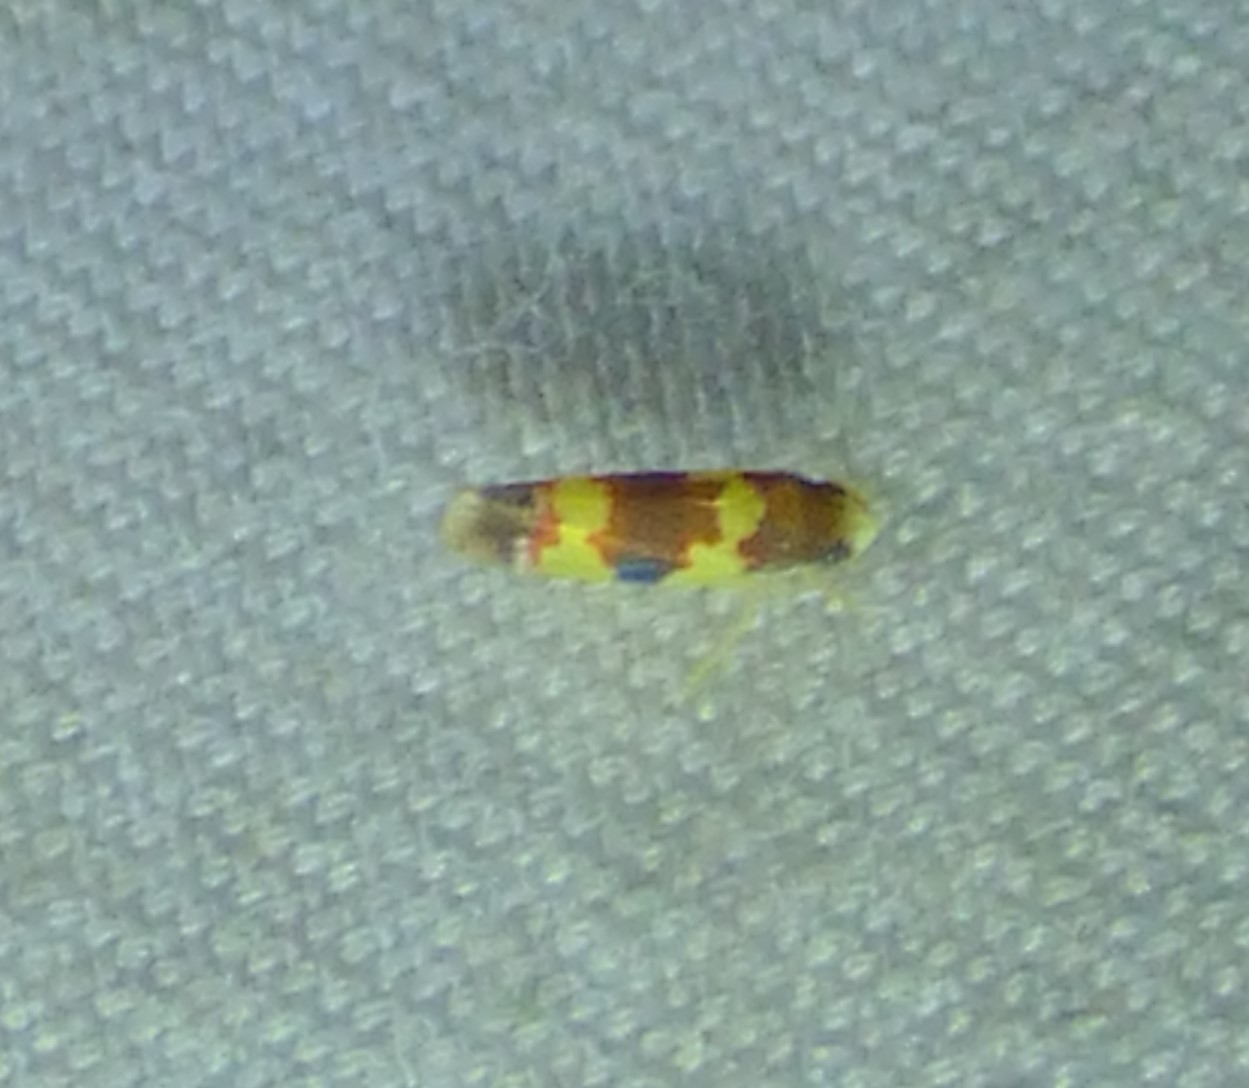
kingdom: Animalia
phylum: Arthropoda
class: Insecta
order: Hemiptera
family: Cicadellidae
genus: Erythroneura
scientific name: Erythroneura bistrata
